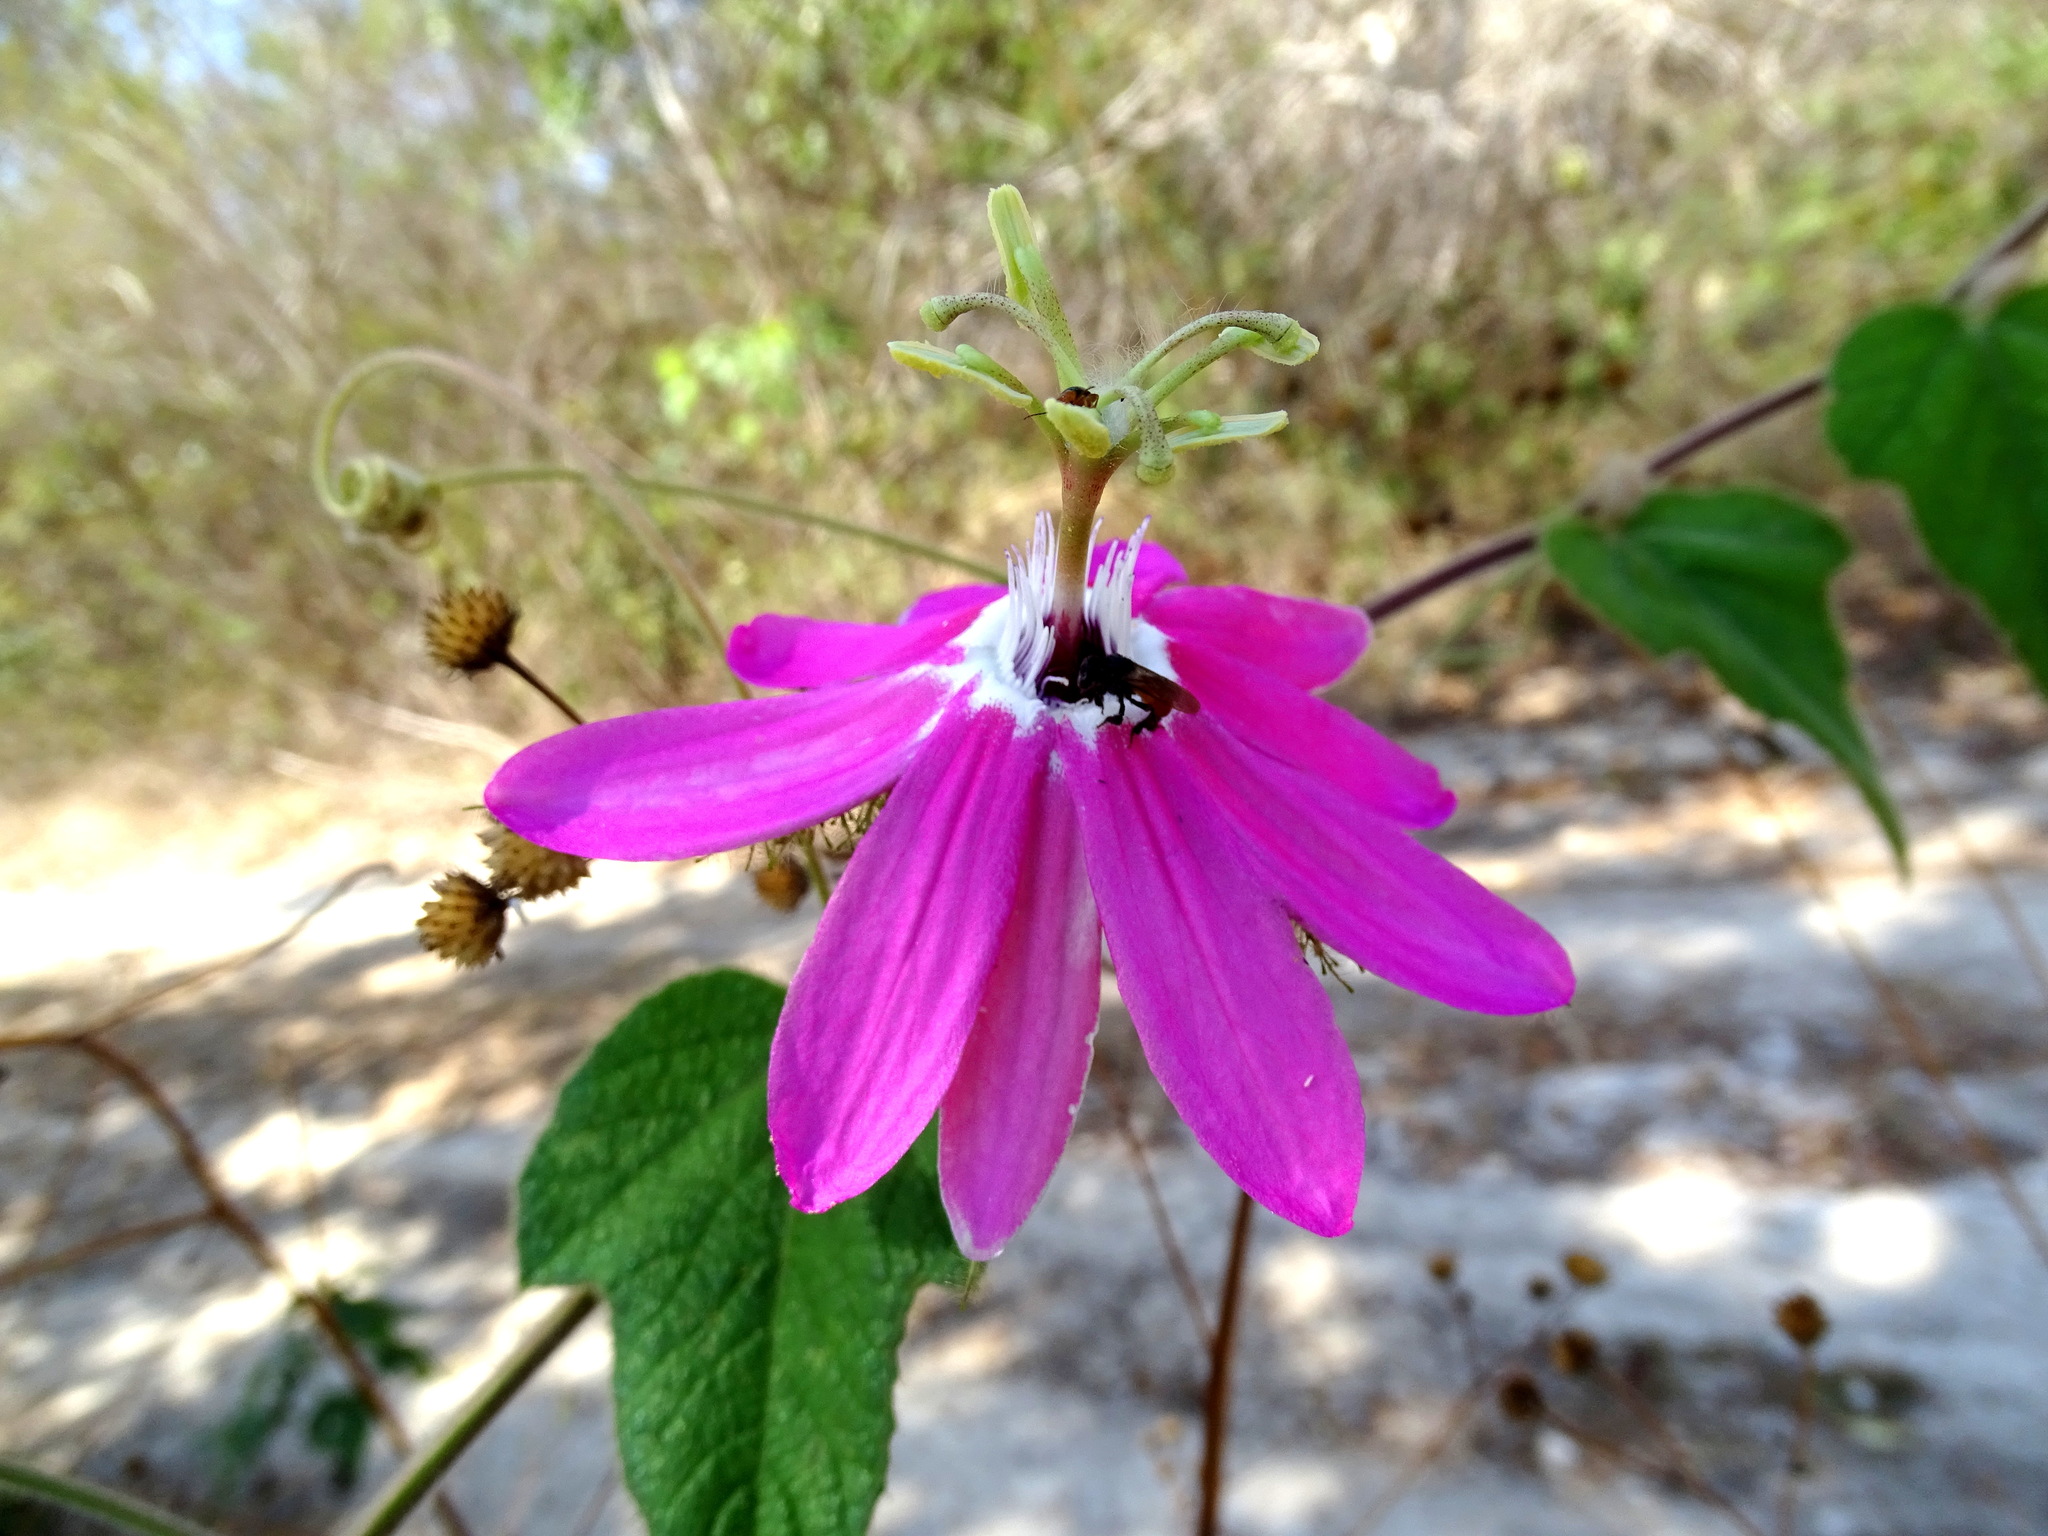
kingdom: Plantae
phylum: Tracheophyta
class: Magnoliopsida
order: Malpighiales
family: Passifloraceae
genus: Passiflora
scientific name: Passiflora sublanceolata
